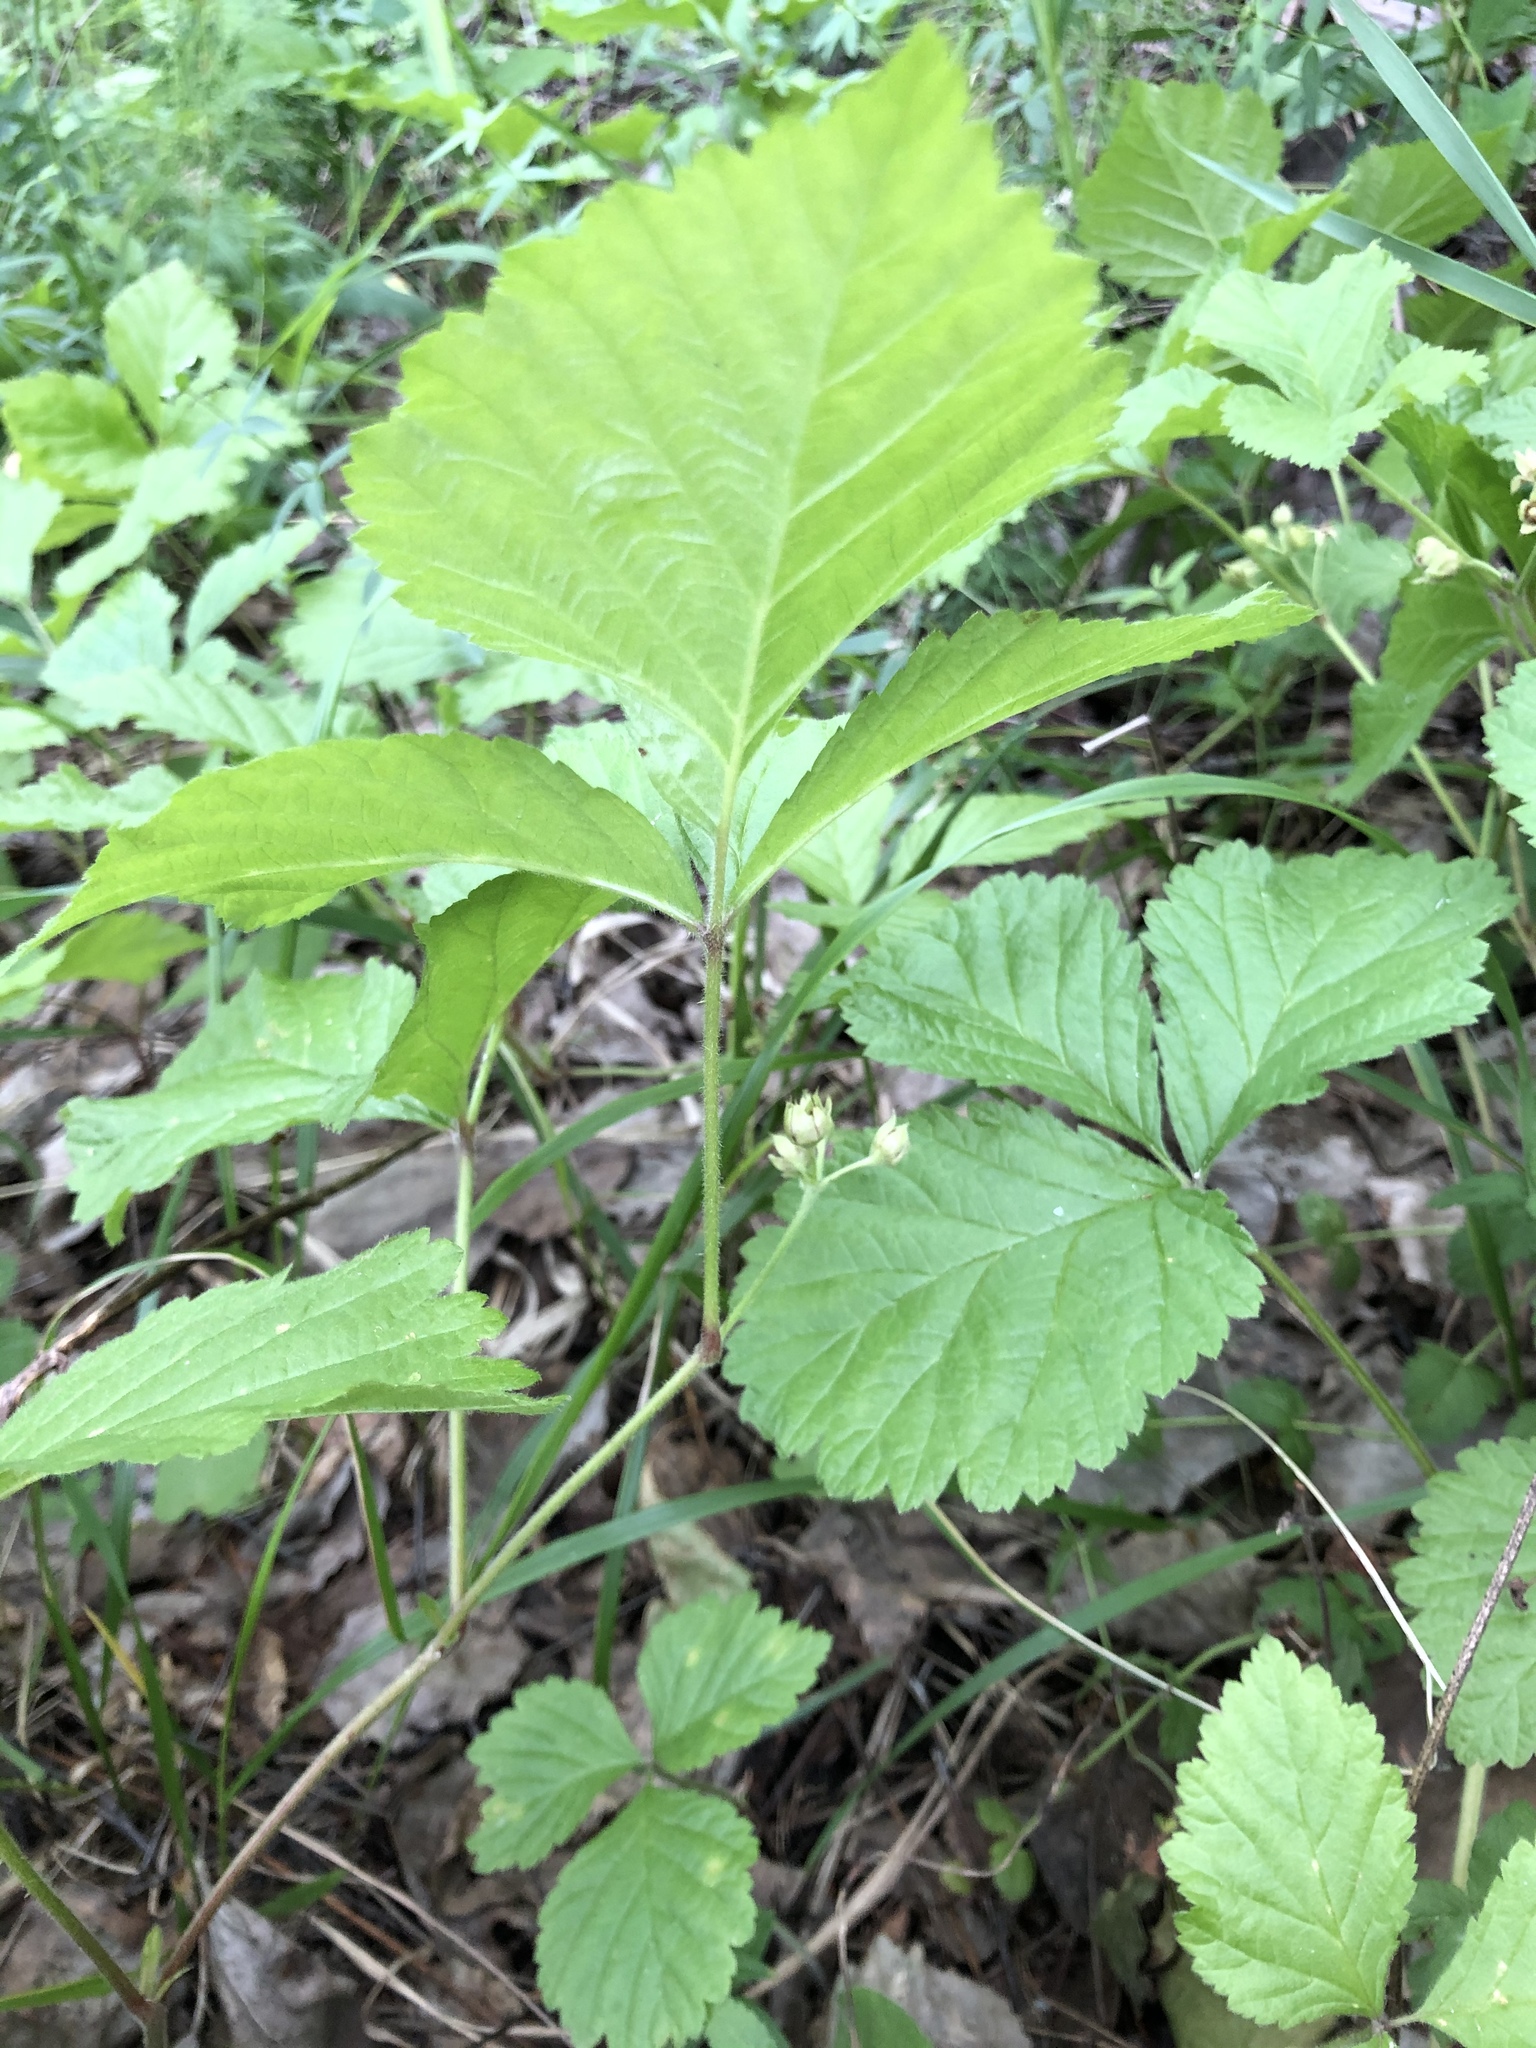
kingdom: Plantae
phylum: Tracheophyta
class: Magnoliopsida
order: Rosales
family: Rosaceae
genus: Rubus
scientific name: Rubus saxatilis
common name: Stone bramble
